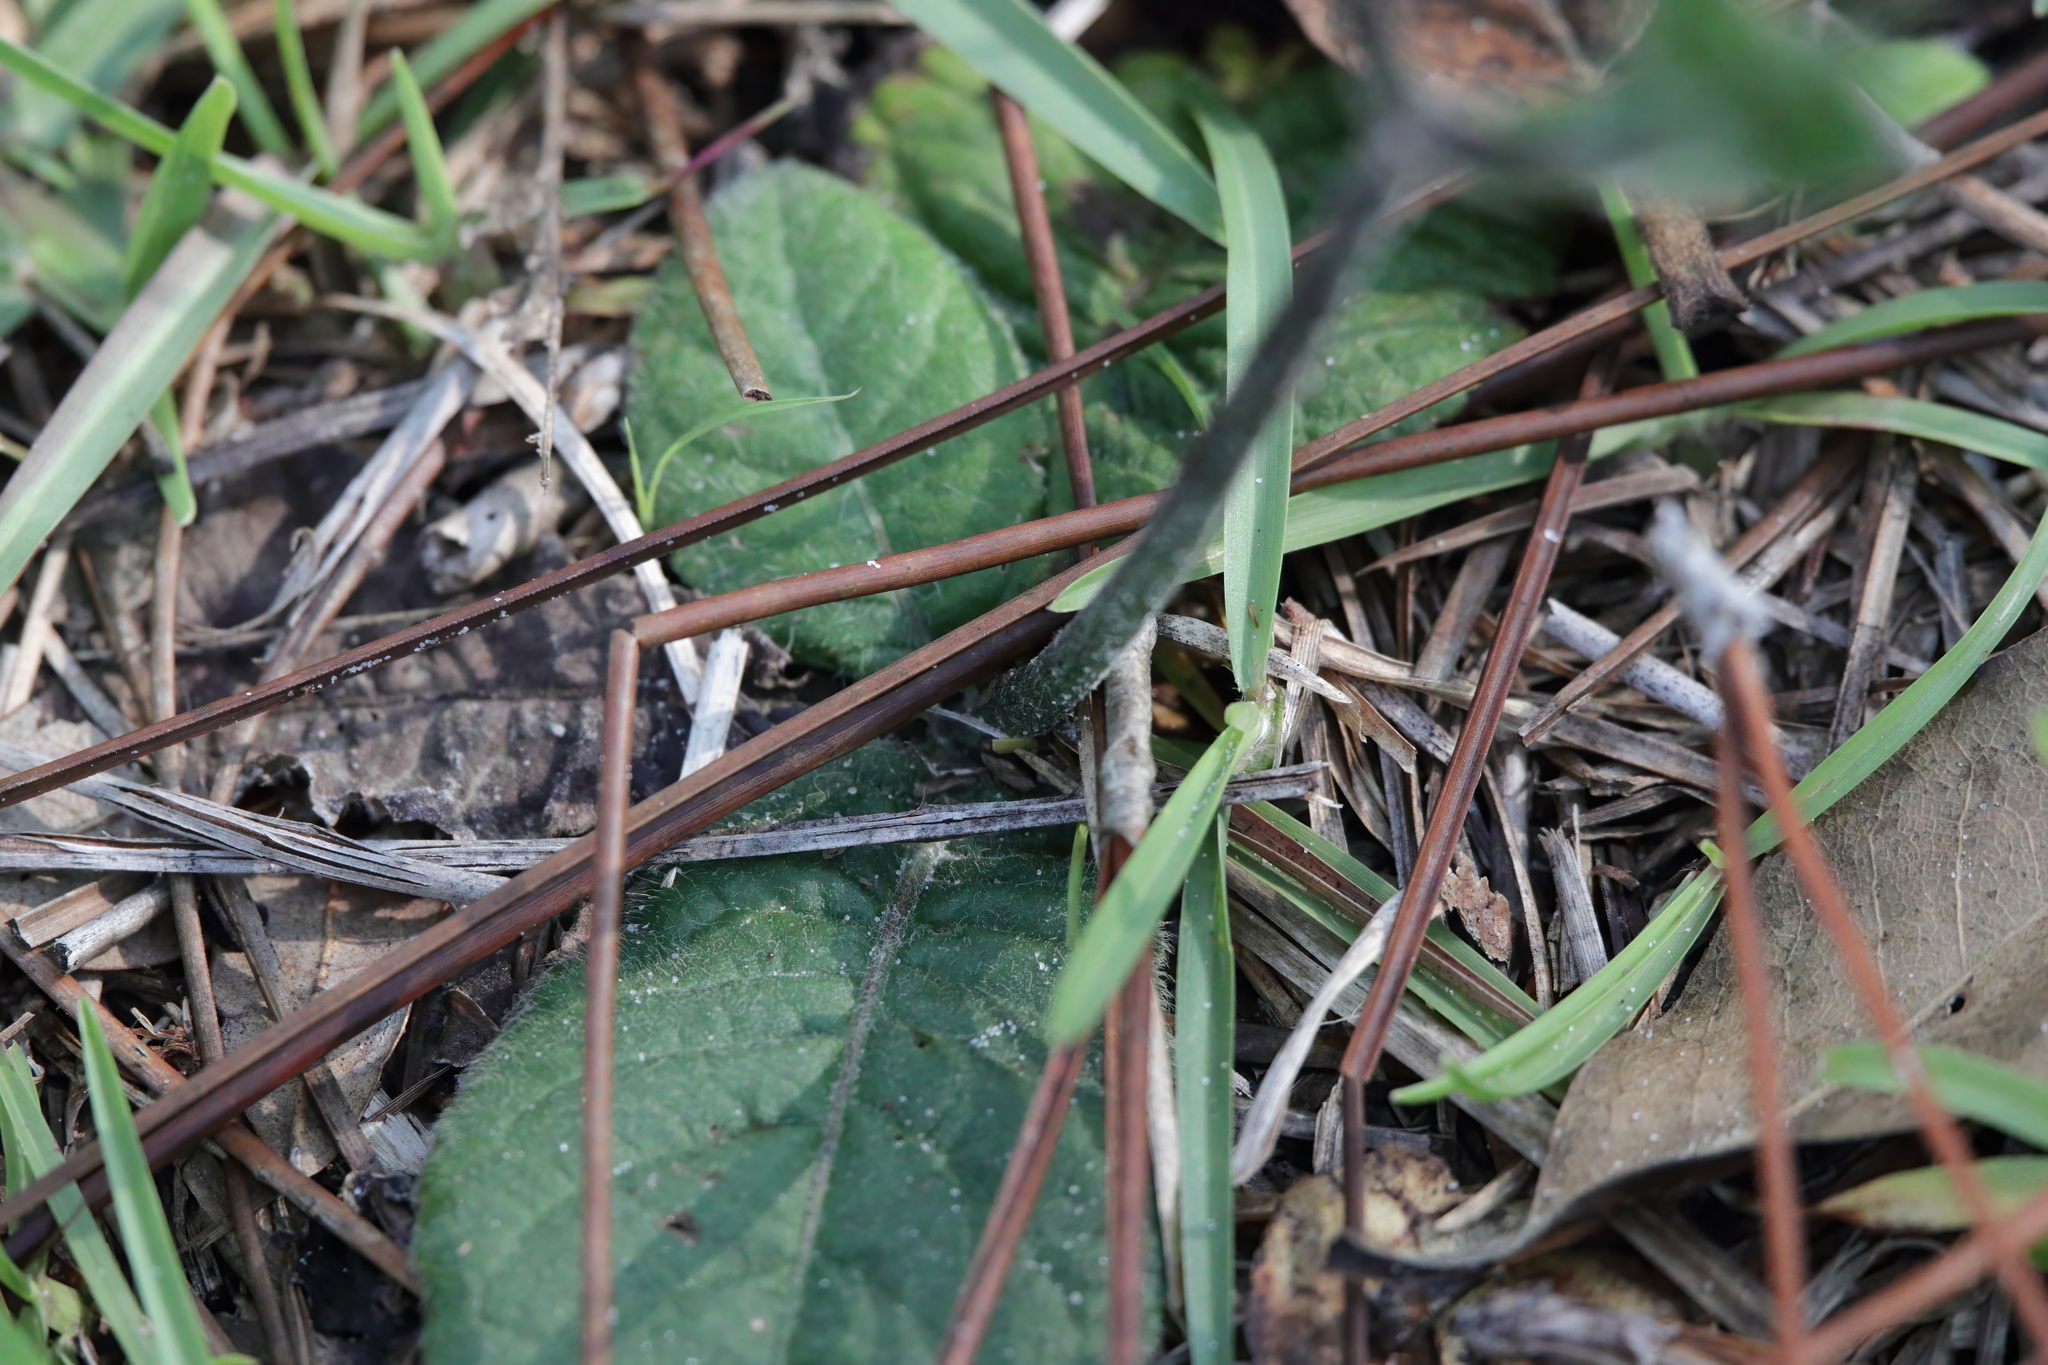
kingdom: Plantae
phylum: Tracheophyta
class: Magnoliopsida
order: Asterales
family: Asteraceae
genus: Elephantopus
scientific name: Elephantopus tomentosus
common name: Tobacco-weed
